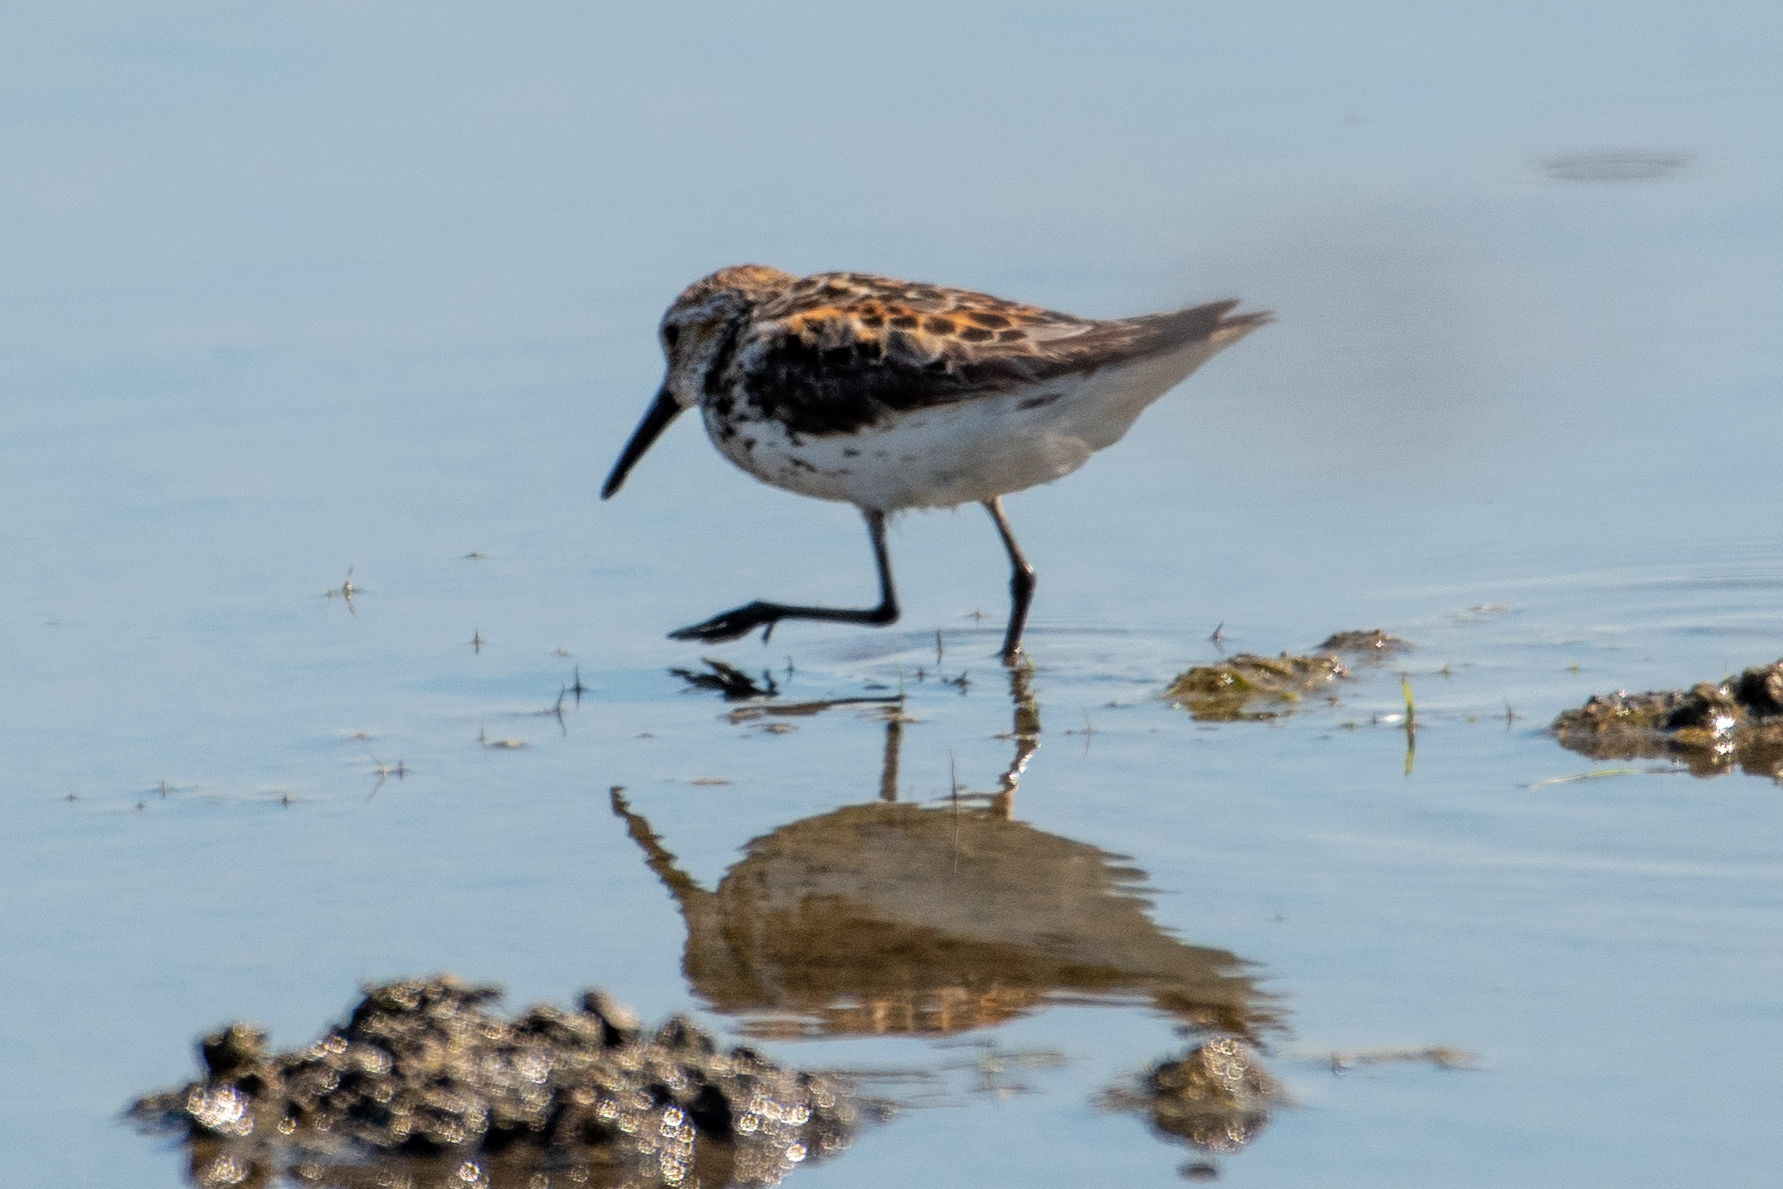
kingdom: Animalia
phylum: Chordata
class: Aves
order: Charadriiformes
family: Scolopacidae
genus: Calidris
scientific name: Calidris mauri
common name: Western sandpiper
